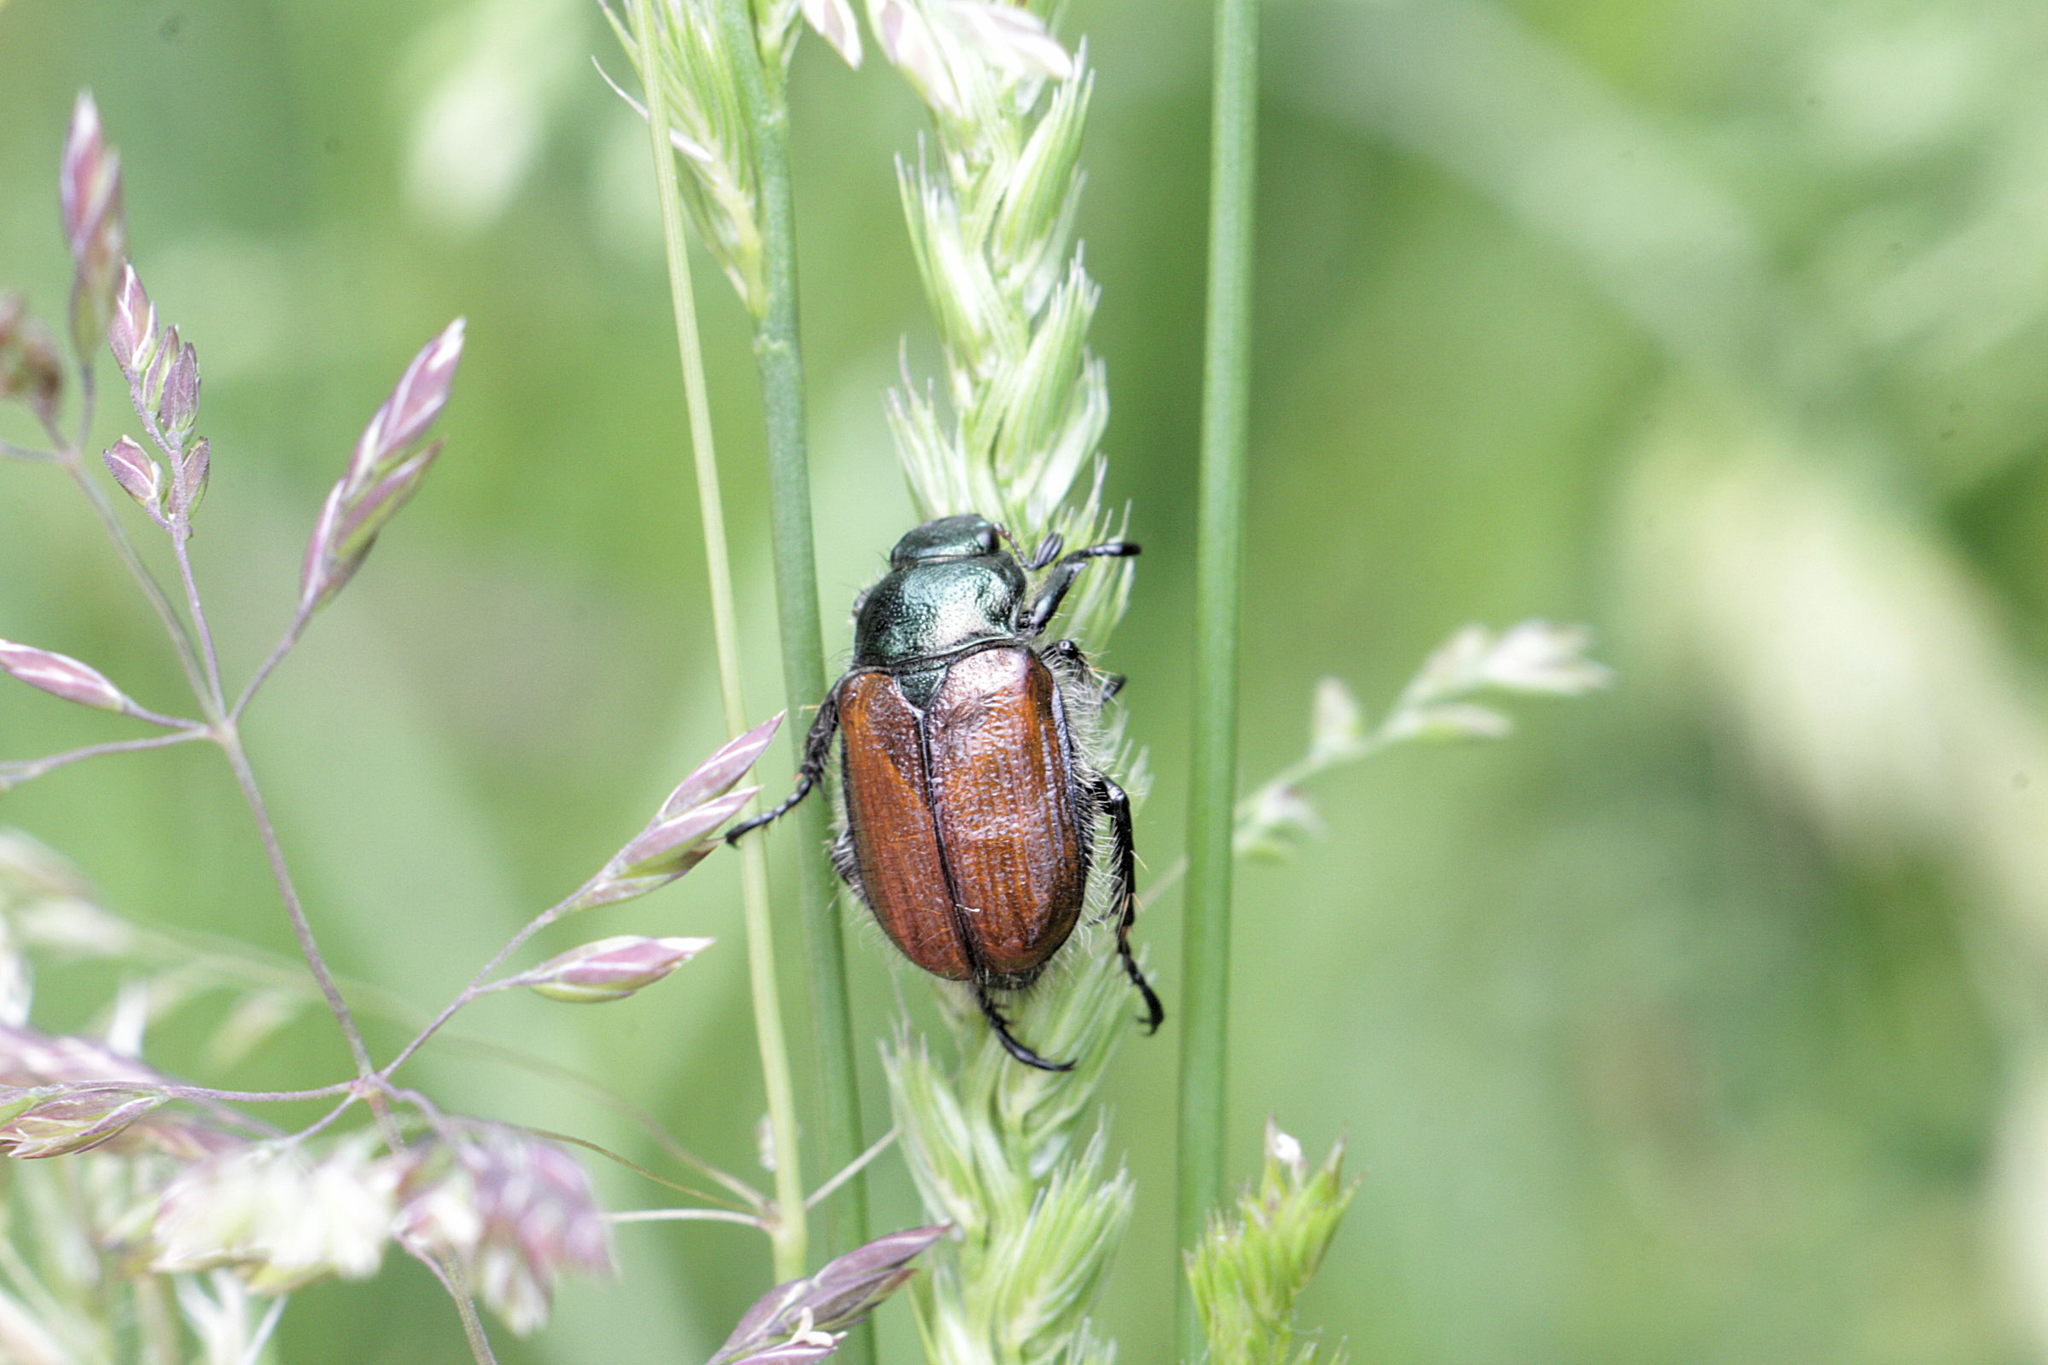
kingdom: Animalia
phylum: Arthropoda
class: Insecta
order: Coleoptera
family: Scarabaeidae
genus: Phyllopertha
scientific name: Phyllopertha horticola
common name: Garden chafer
